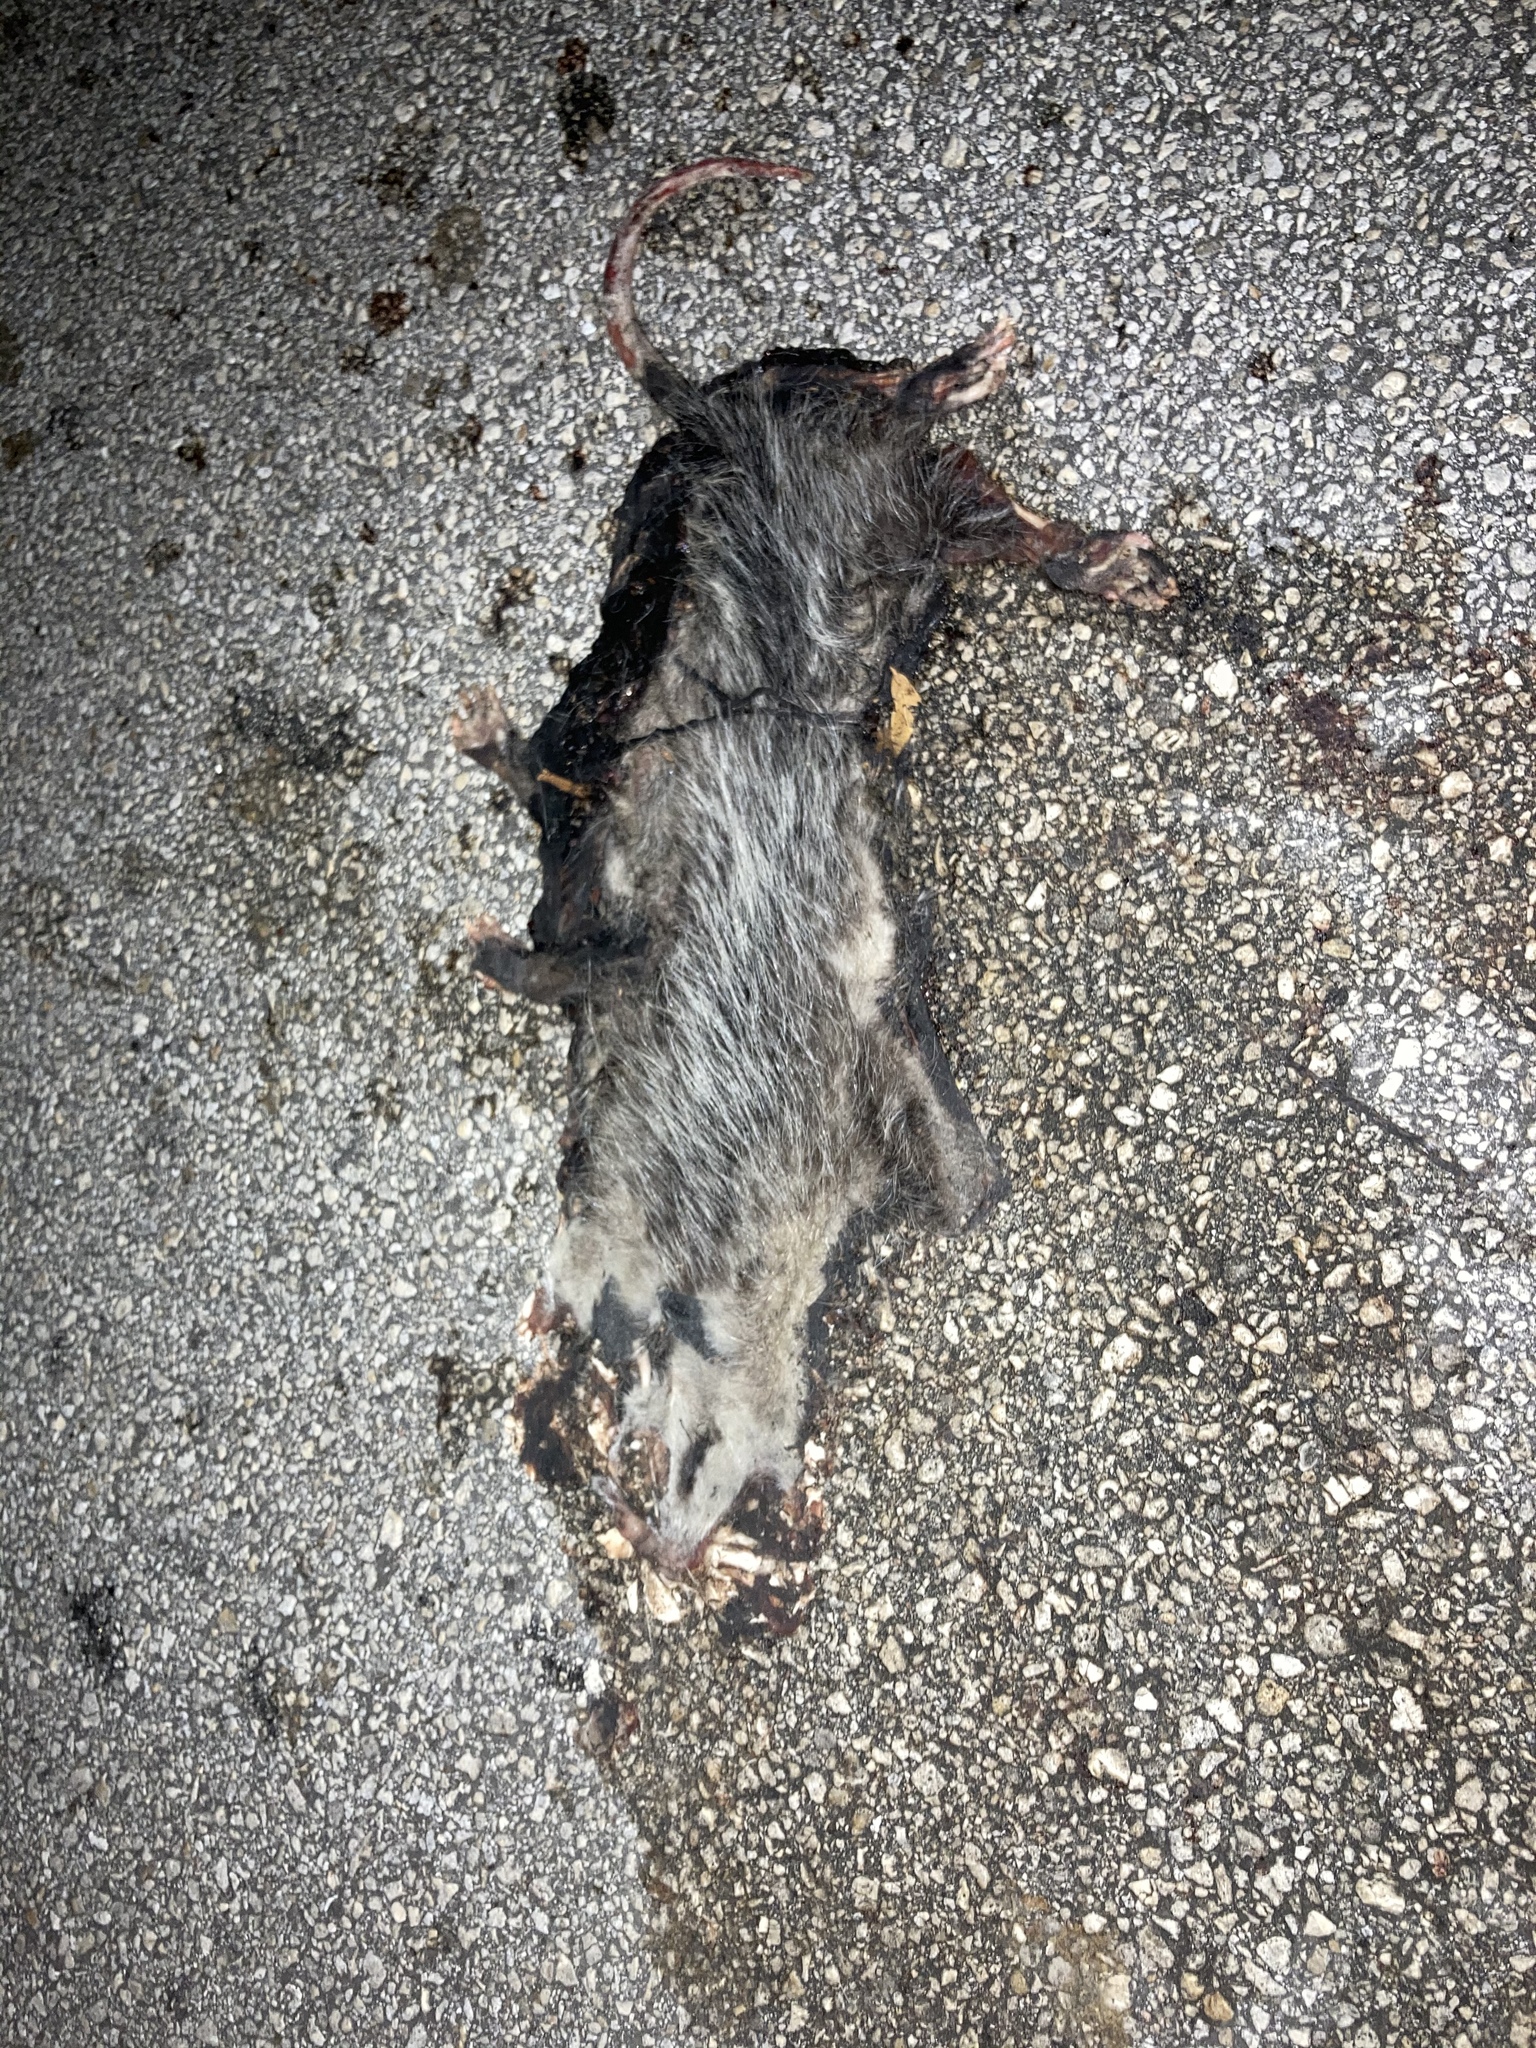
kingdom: Animalia
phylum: Chordata
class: Mammalia
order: Didelphimorphia
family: Didelphidae
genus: Didelphis
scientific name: Didelphis virginiana
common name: Virginia opossum
